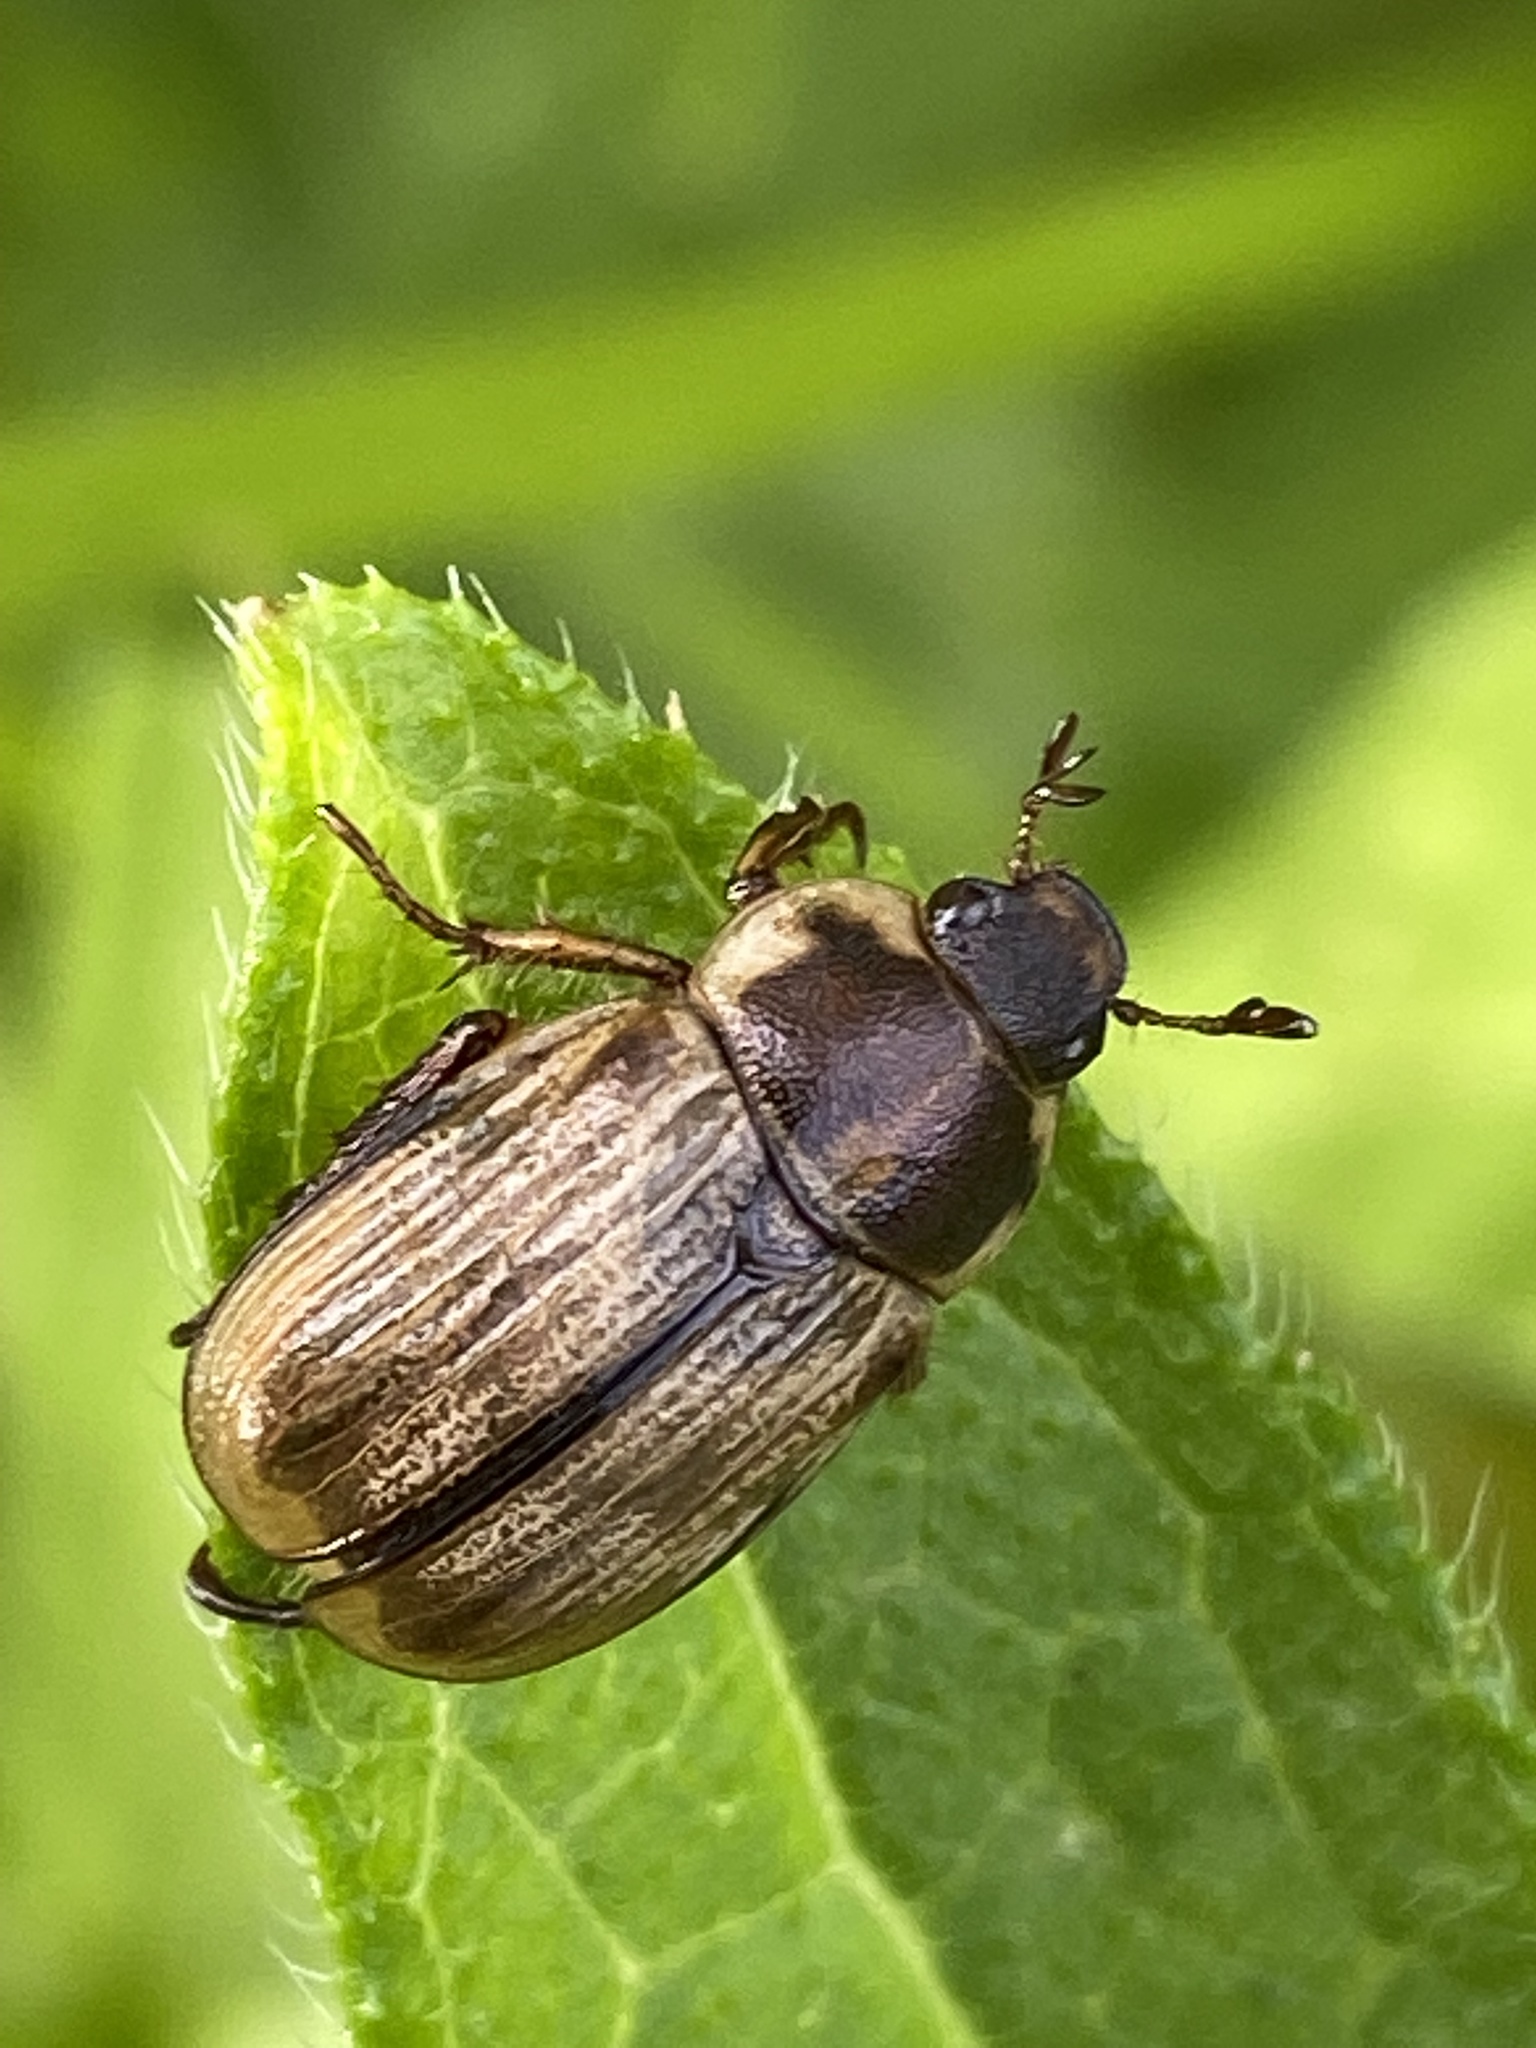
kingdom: Animalia
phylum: Arthropoda
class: Insecta
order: Coleoptera
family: Scarabaeidae
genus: Exomala
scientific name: Exomala orientalis
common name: Oriental beetle
